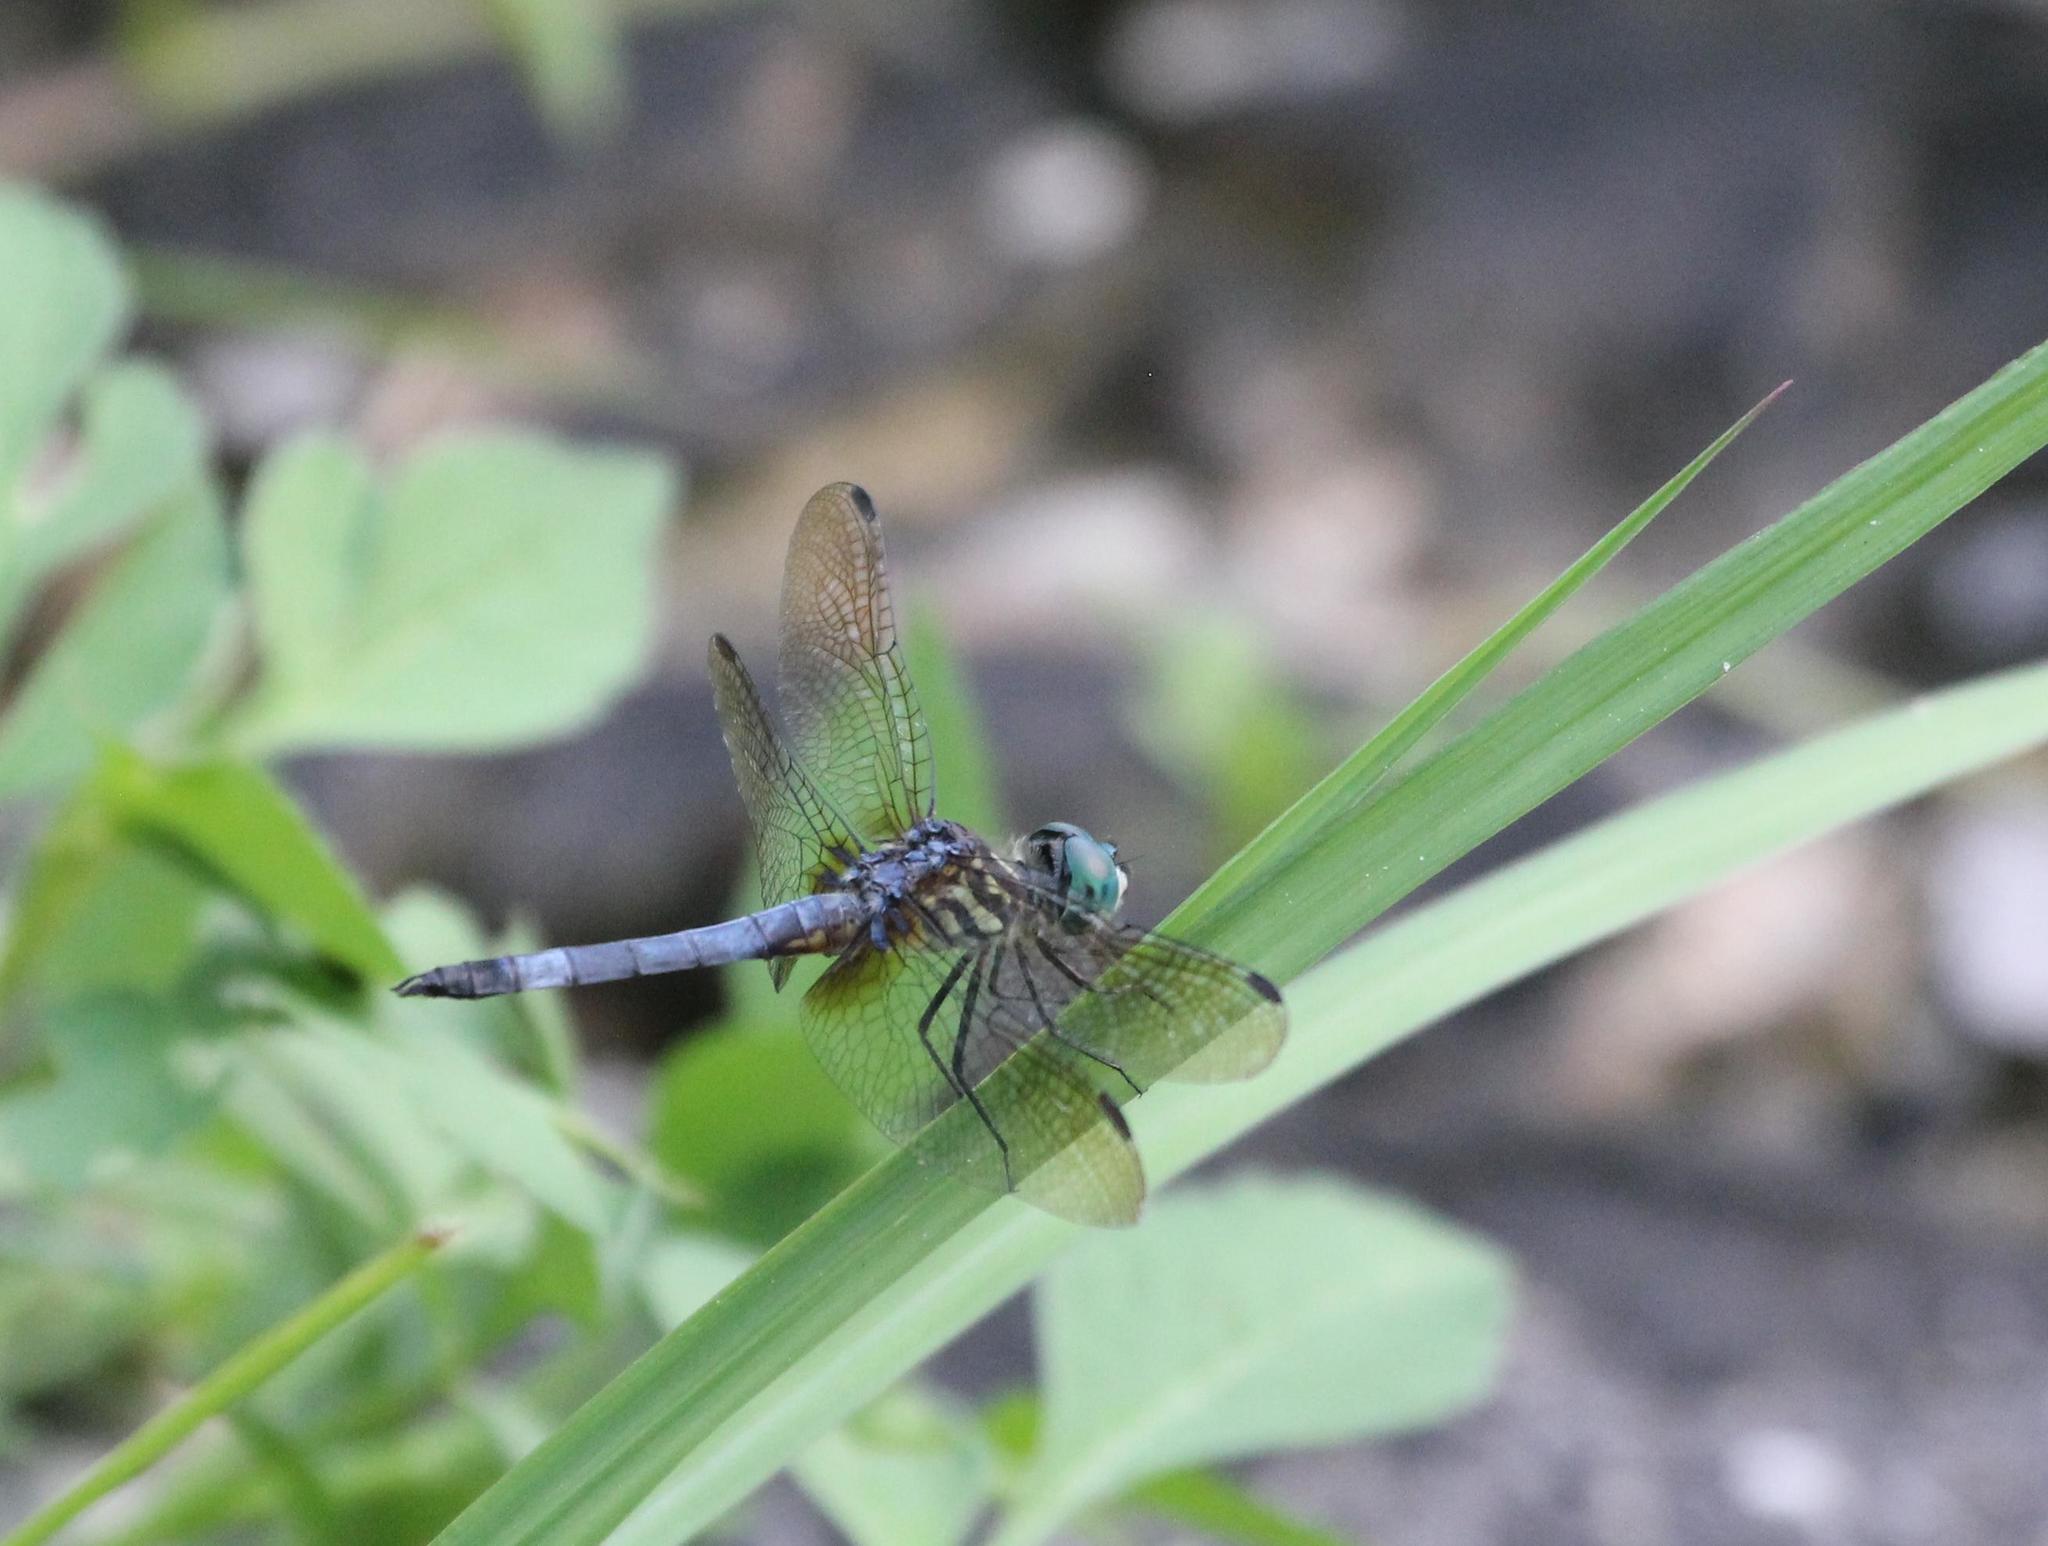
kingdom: Animalia
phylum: Arthropoda
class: Insecta
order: Odonata
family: Libellulidae
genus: Pachydiplax
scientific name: Pachydiplax longipennis
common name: Blue dasher
